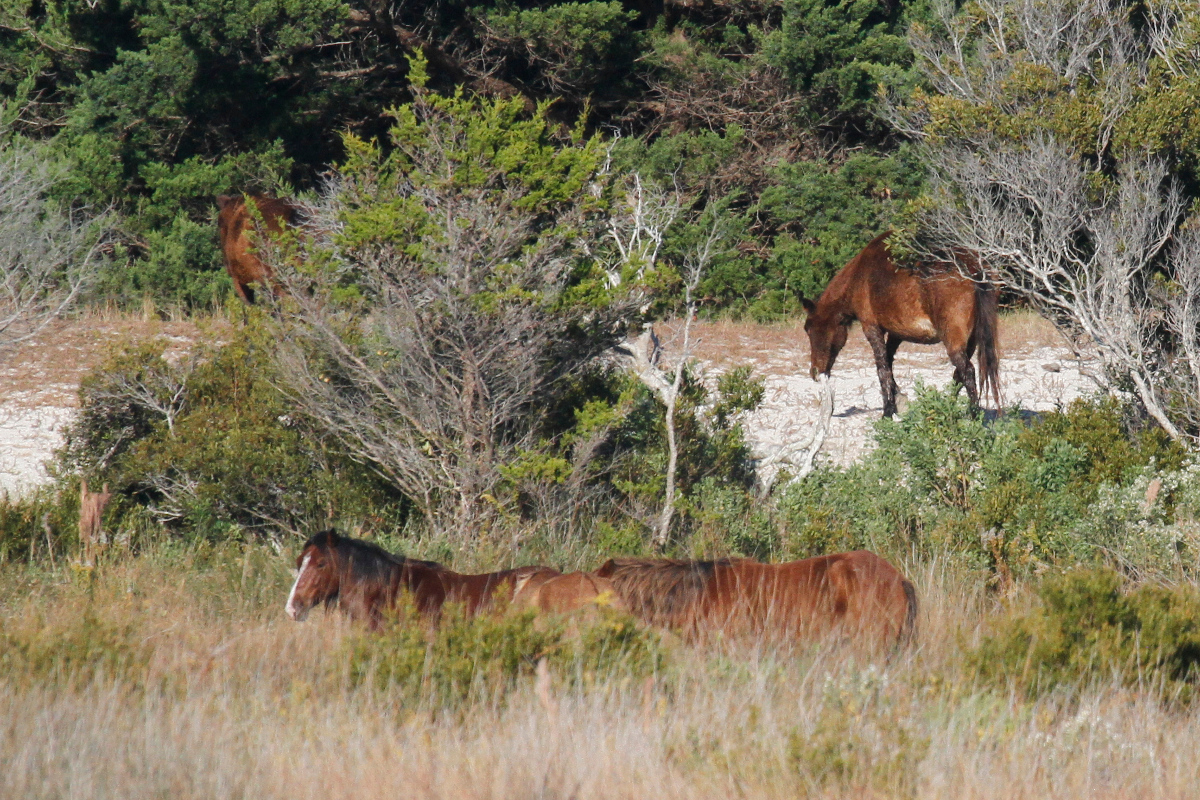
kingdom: Animalia
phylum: Chordata
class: Mammalia
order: Perissodactyla
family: Equidae
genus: Equus
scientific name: Equus caballus
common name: Horse
